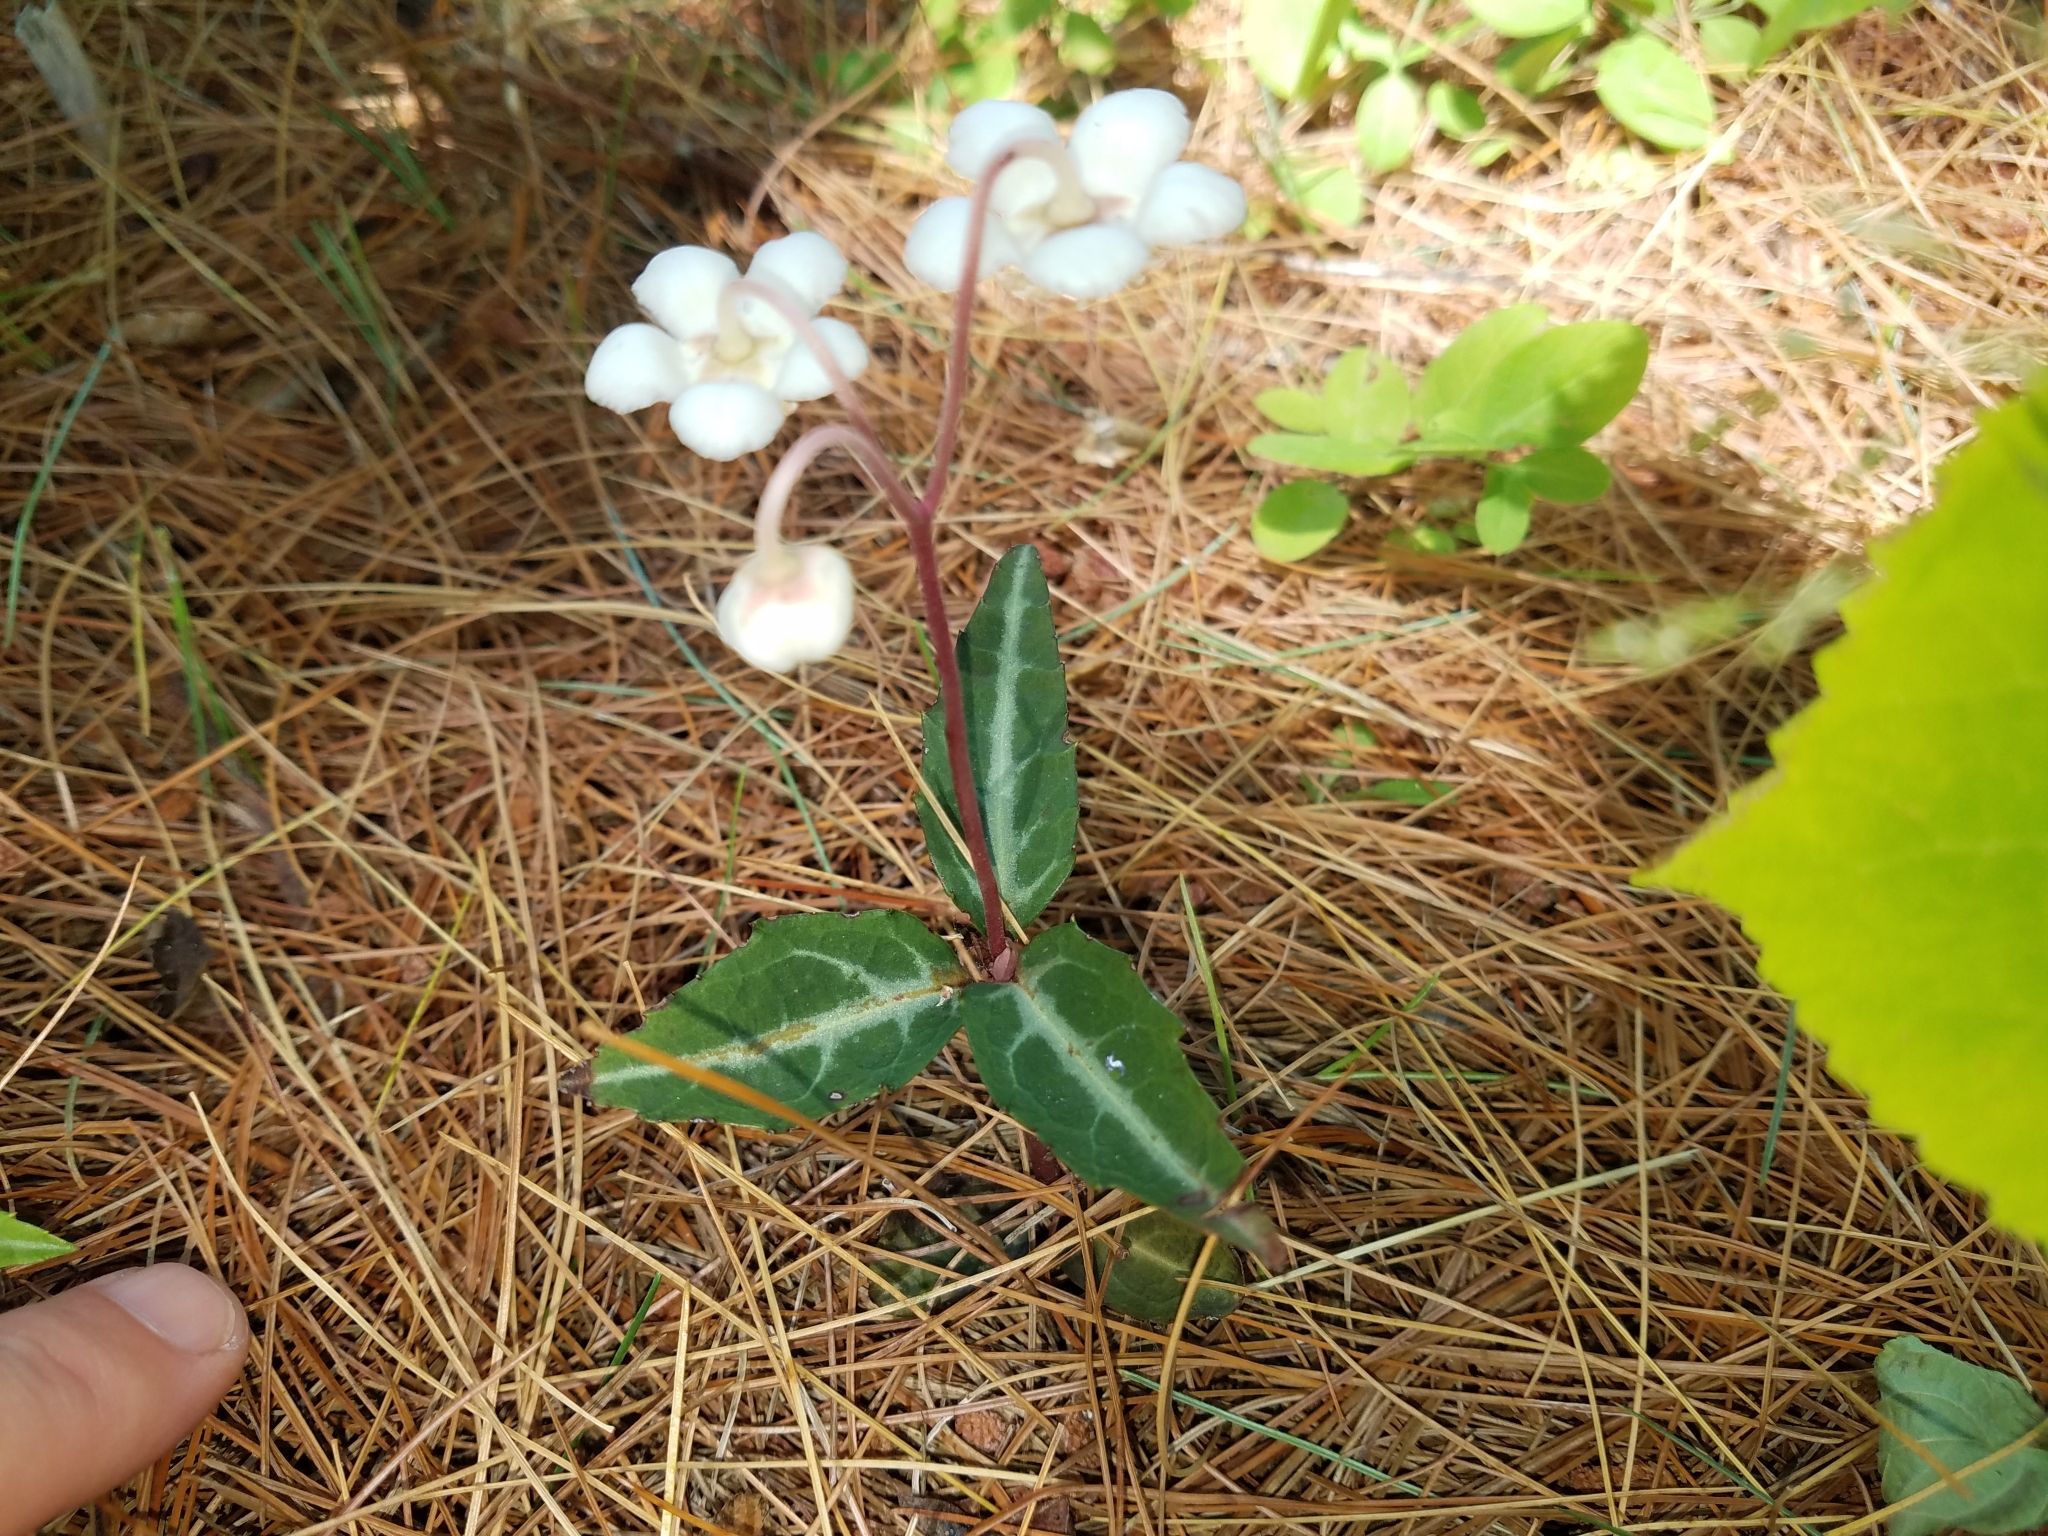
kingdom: Plantae
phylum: Tracheophyta
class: Magnoliopsida
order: Ericales
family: Ericaceae
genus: Chimaphila
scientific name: Chimaphila maculata
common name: Spotted pipsissewa
